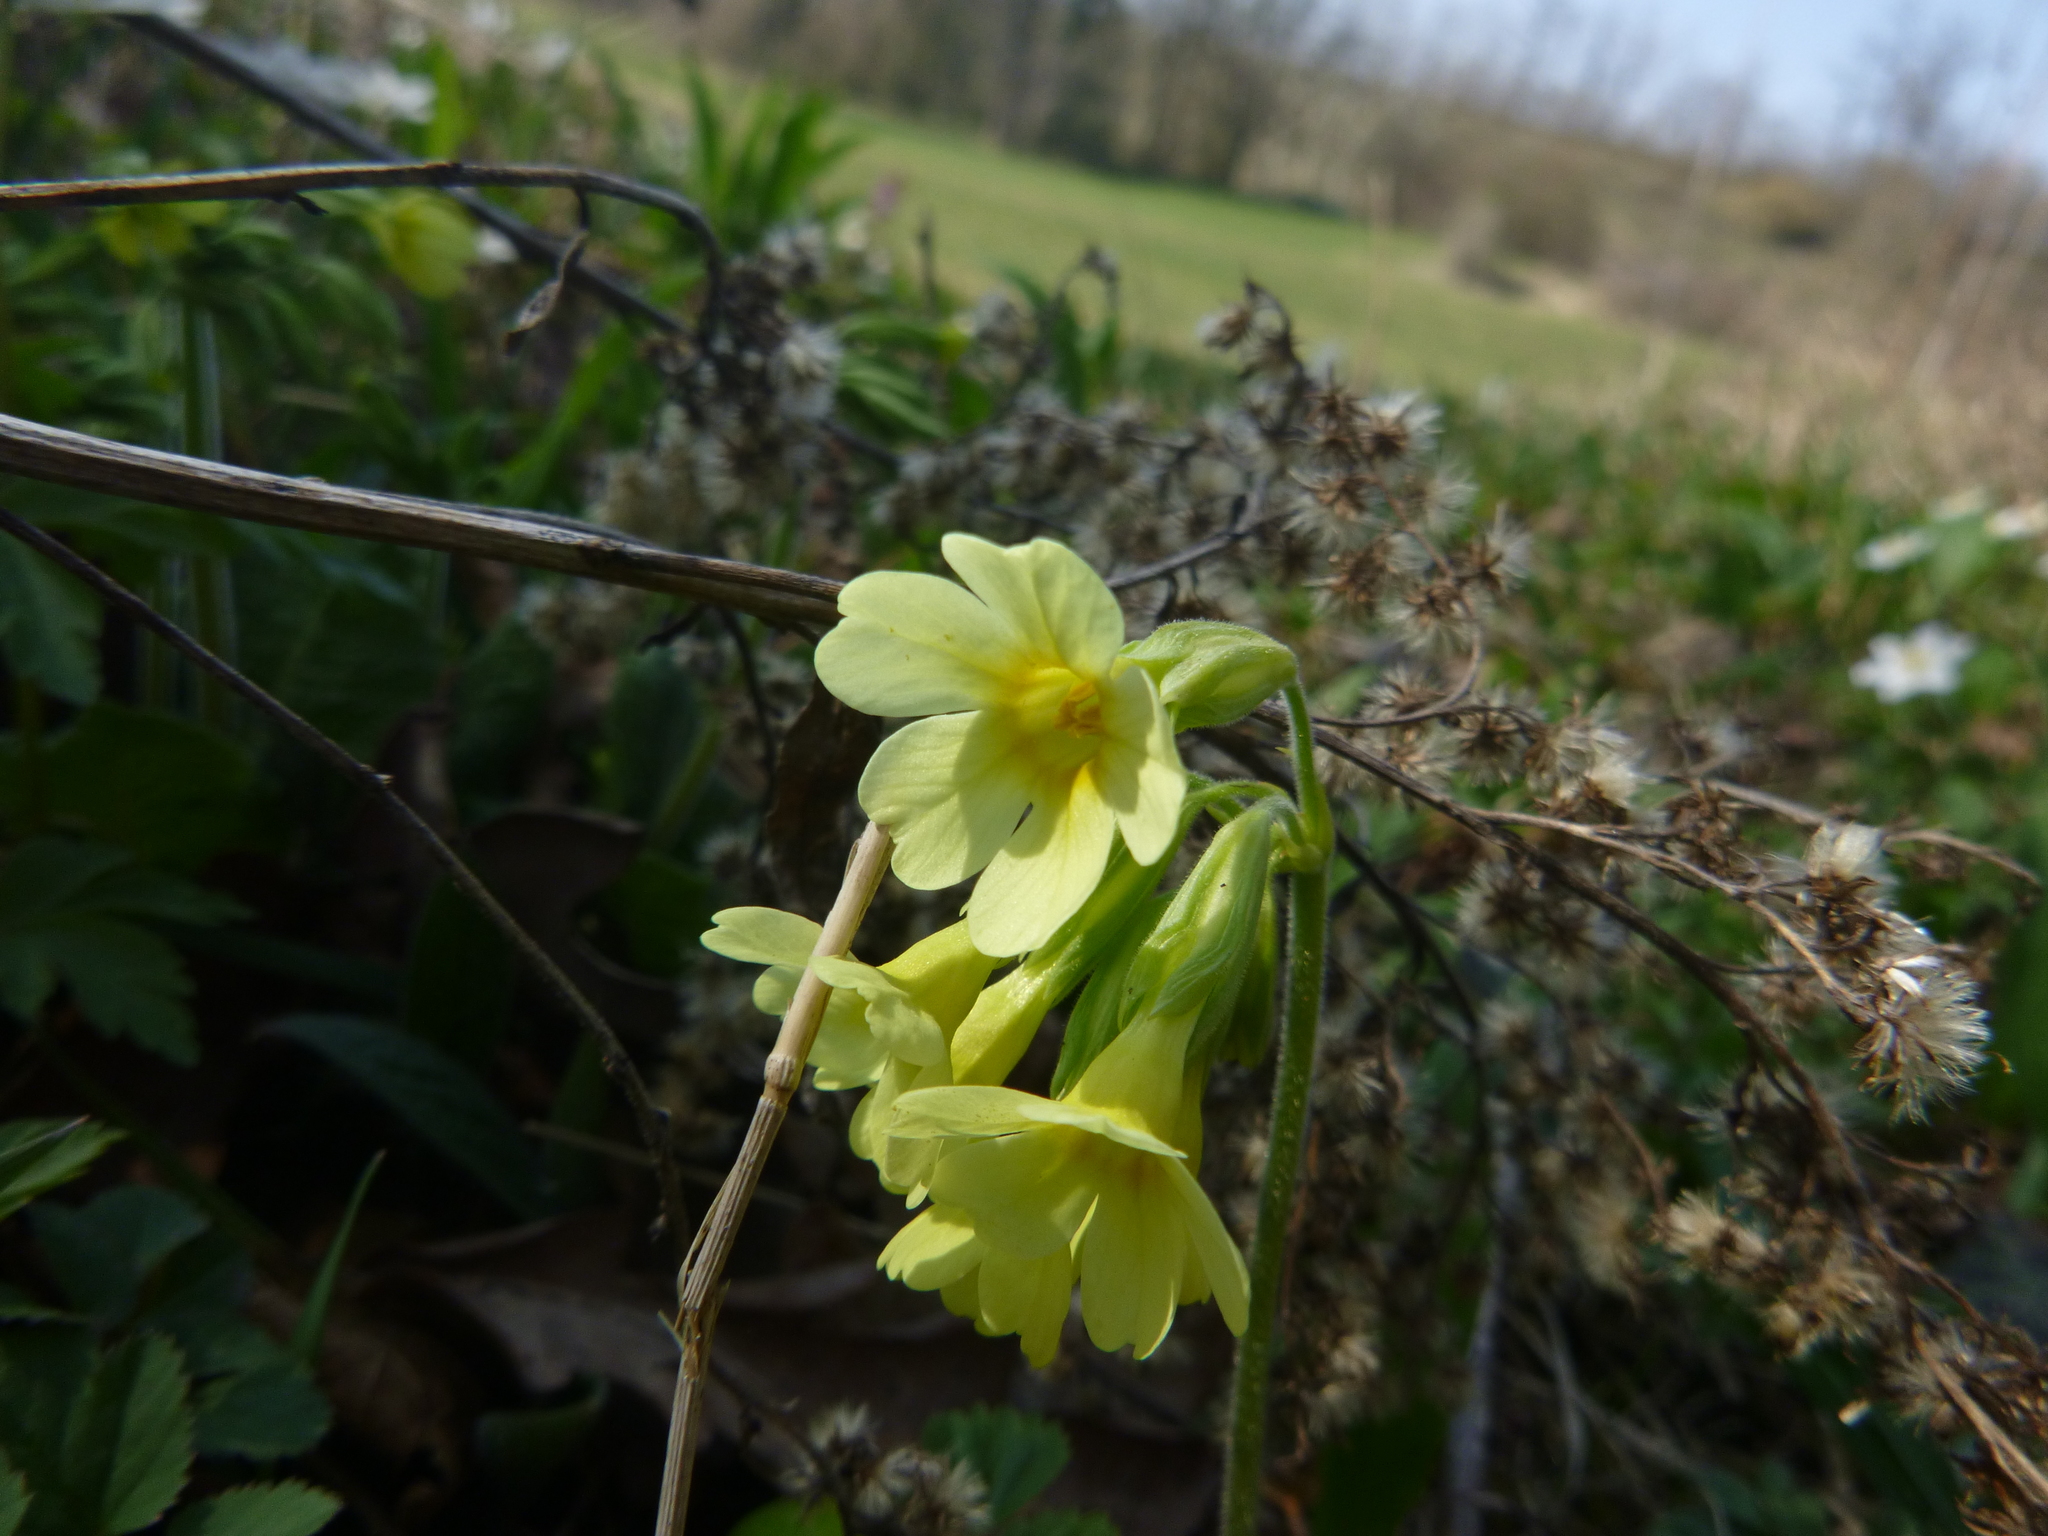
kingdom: Plantae
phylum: Tracheophyta
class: Magnoliopsida
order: Ericales
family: Primulaceae
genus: Primula
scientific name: Primula elatior
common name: Oxlip
